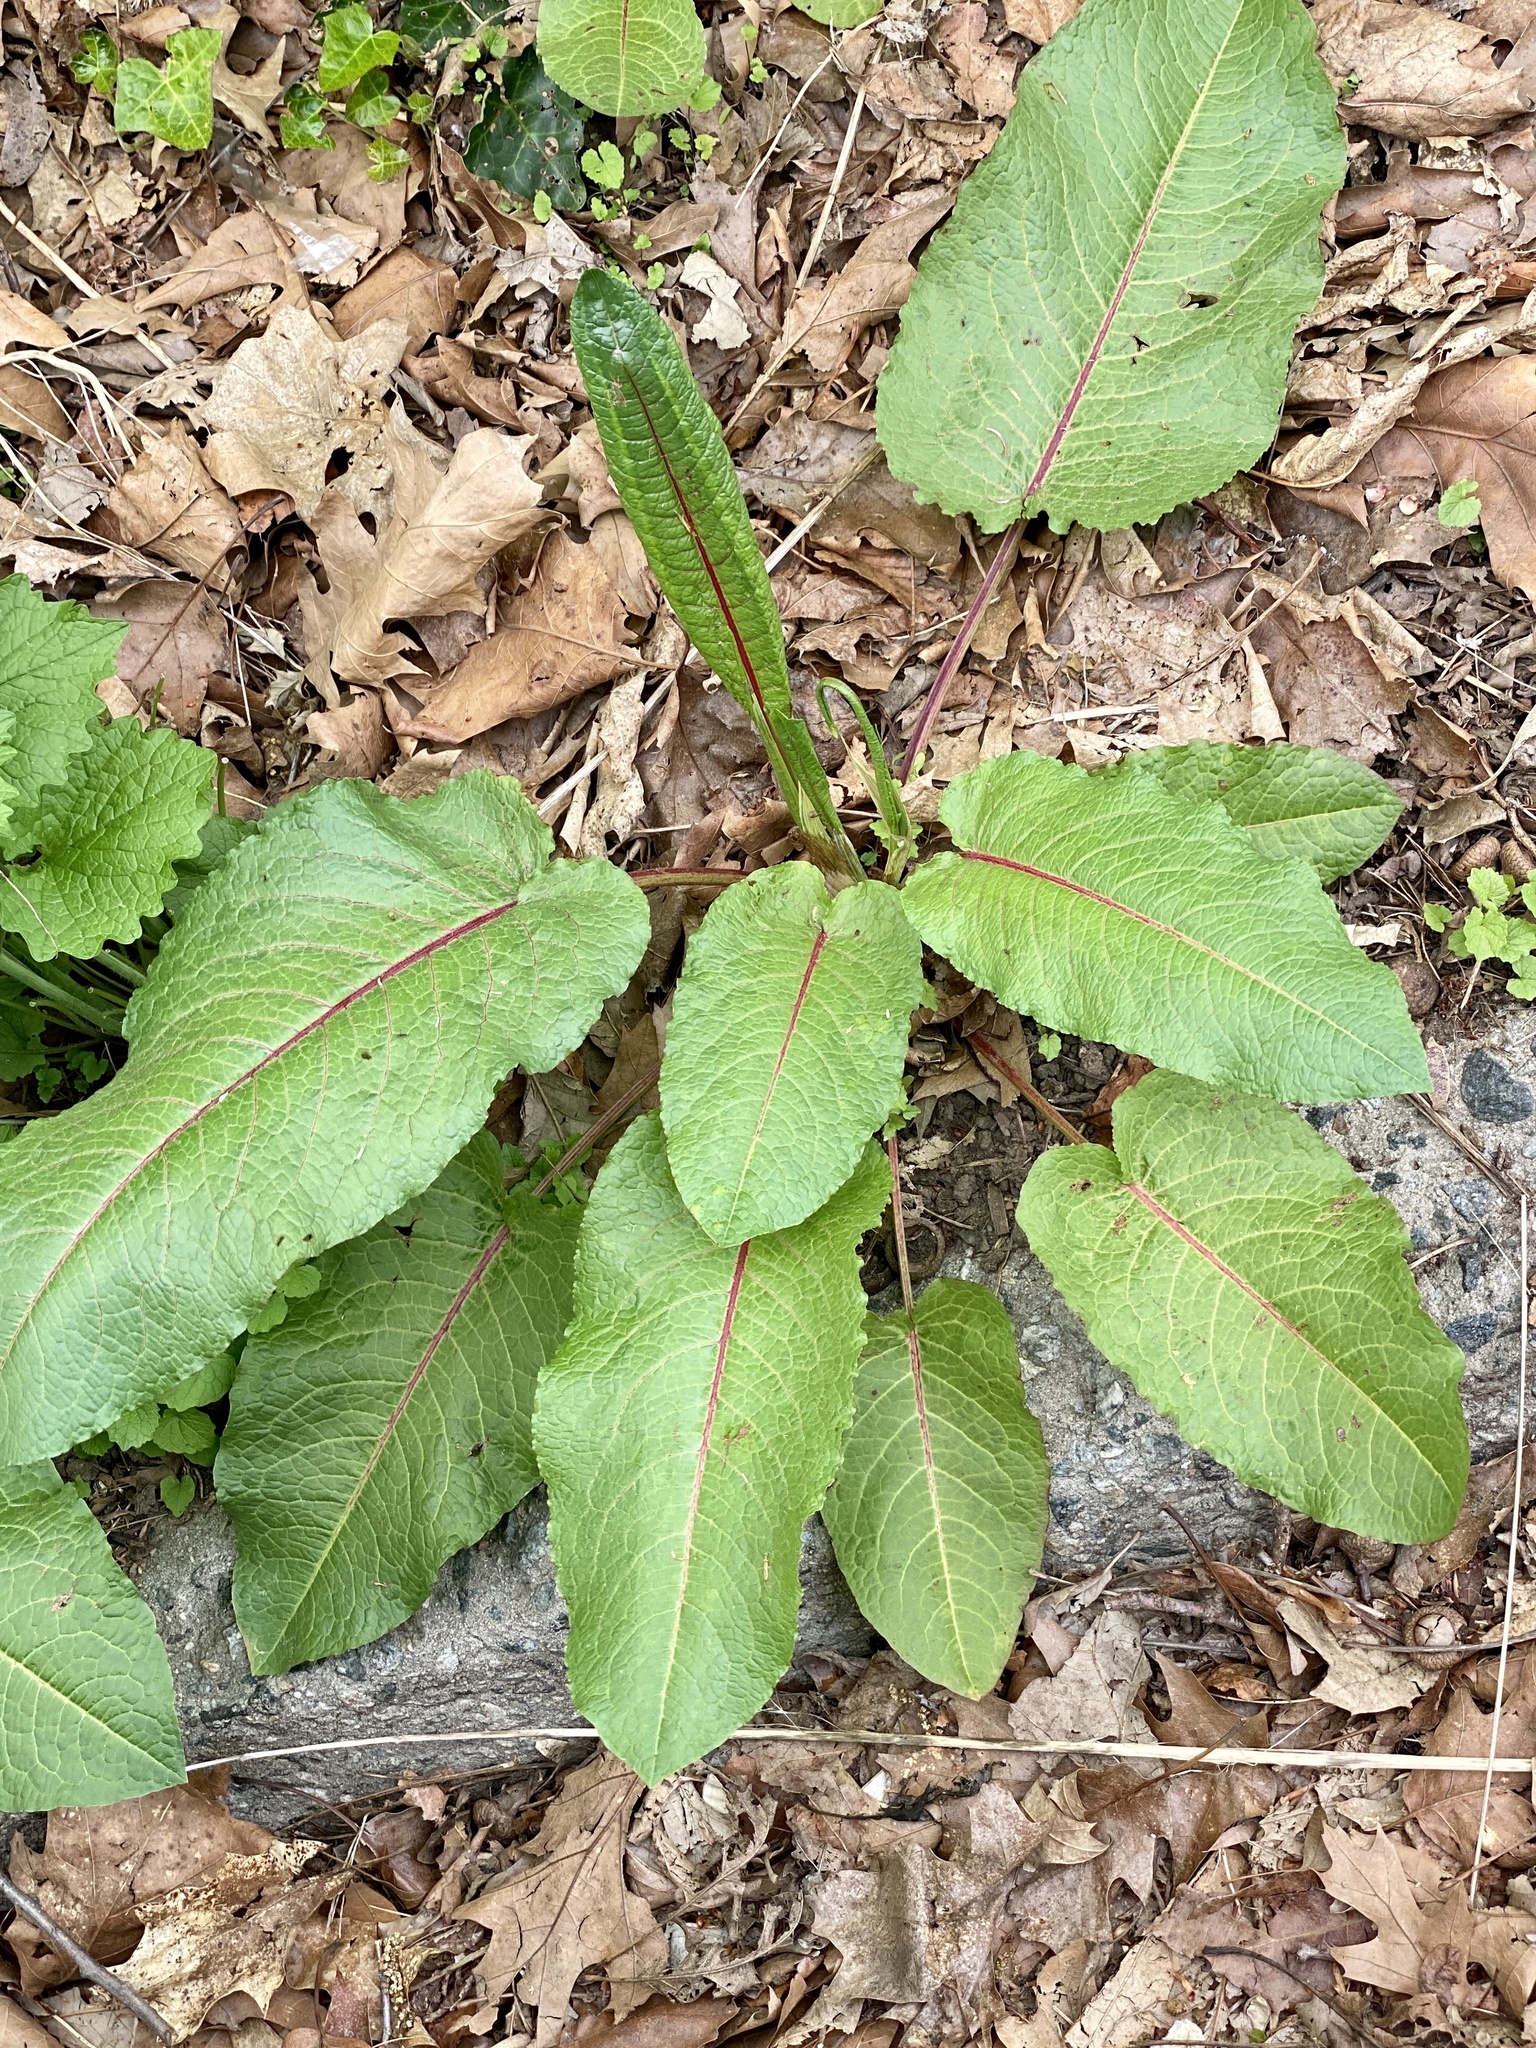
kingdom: Plantae
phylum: Tracheophyta
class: Magnoliopsida
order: Caryophyllales
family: Polygonaceae
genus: Rumex
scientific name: Rumex obtusifolius
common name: Bitter dock
